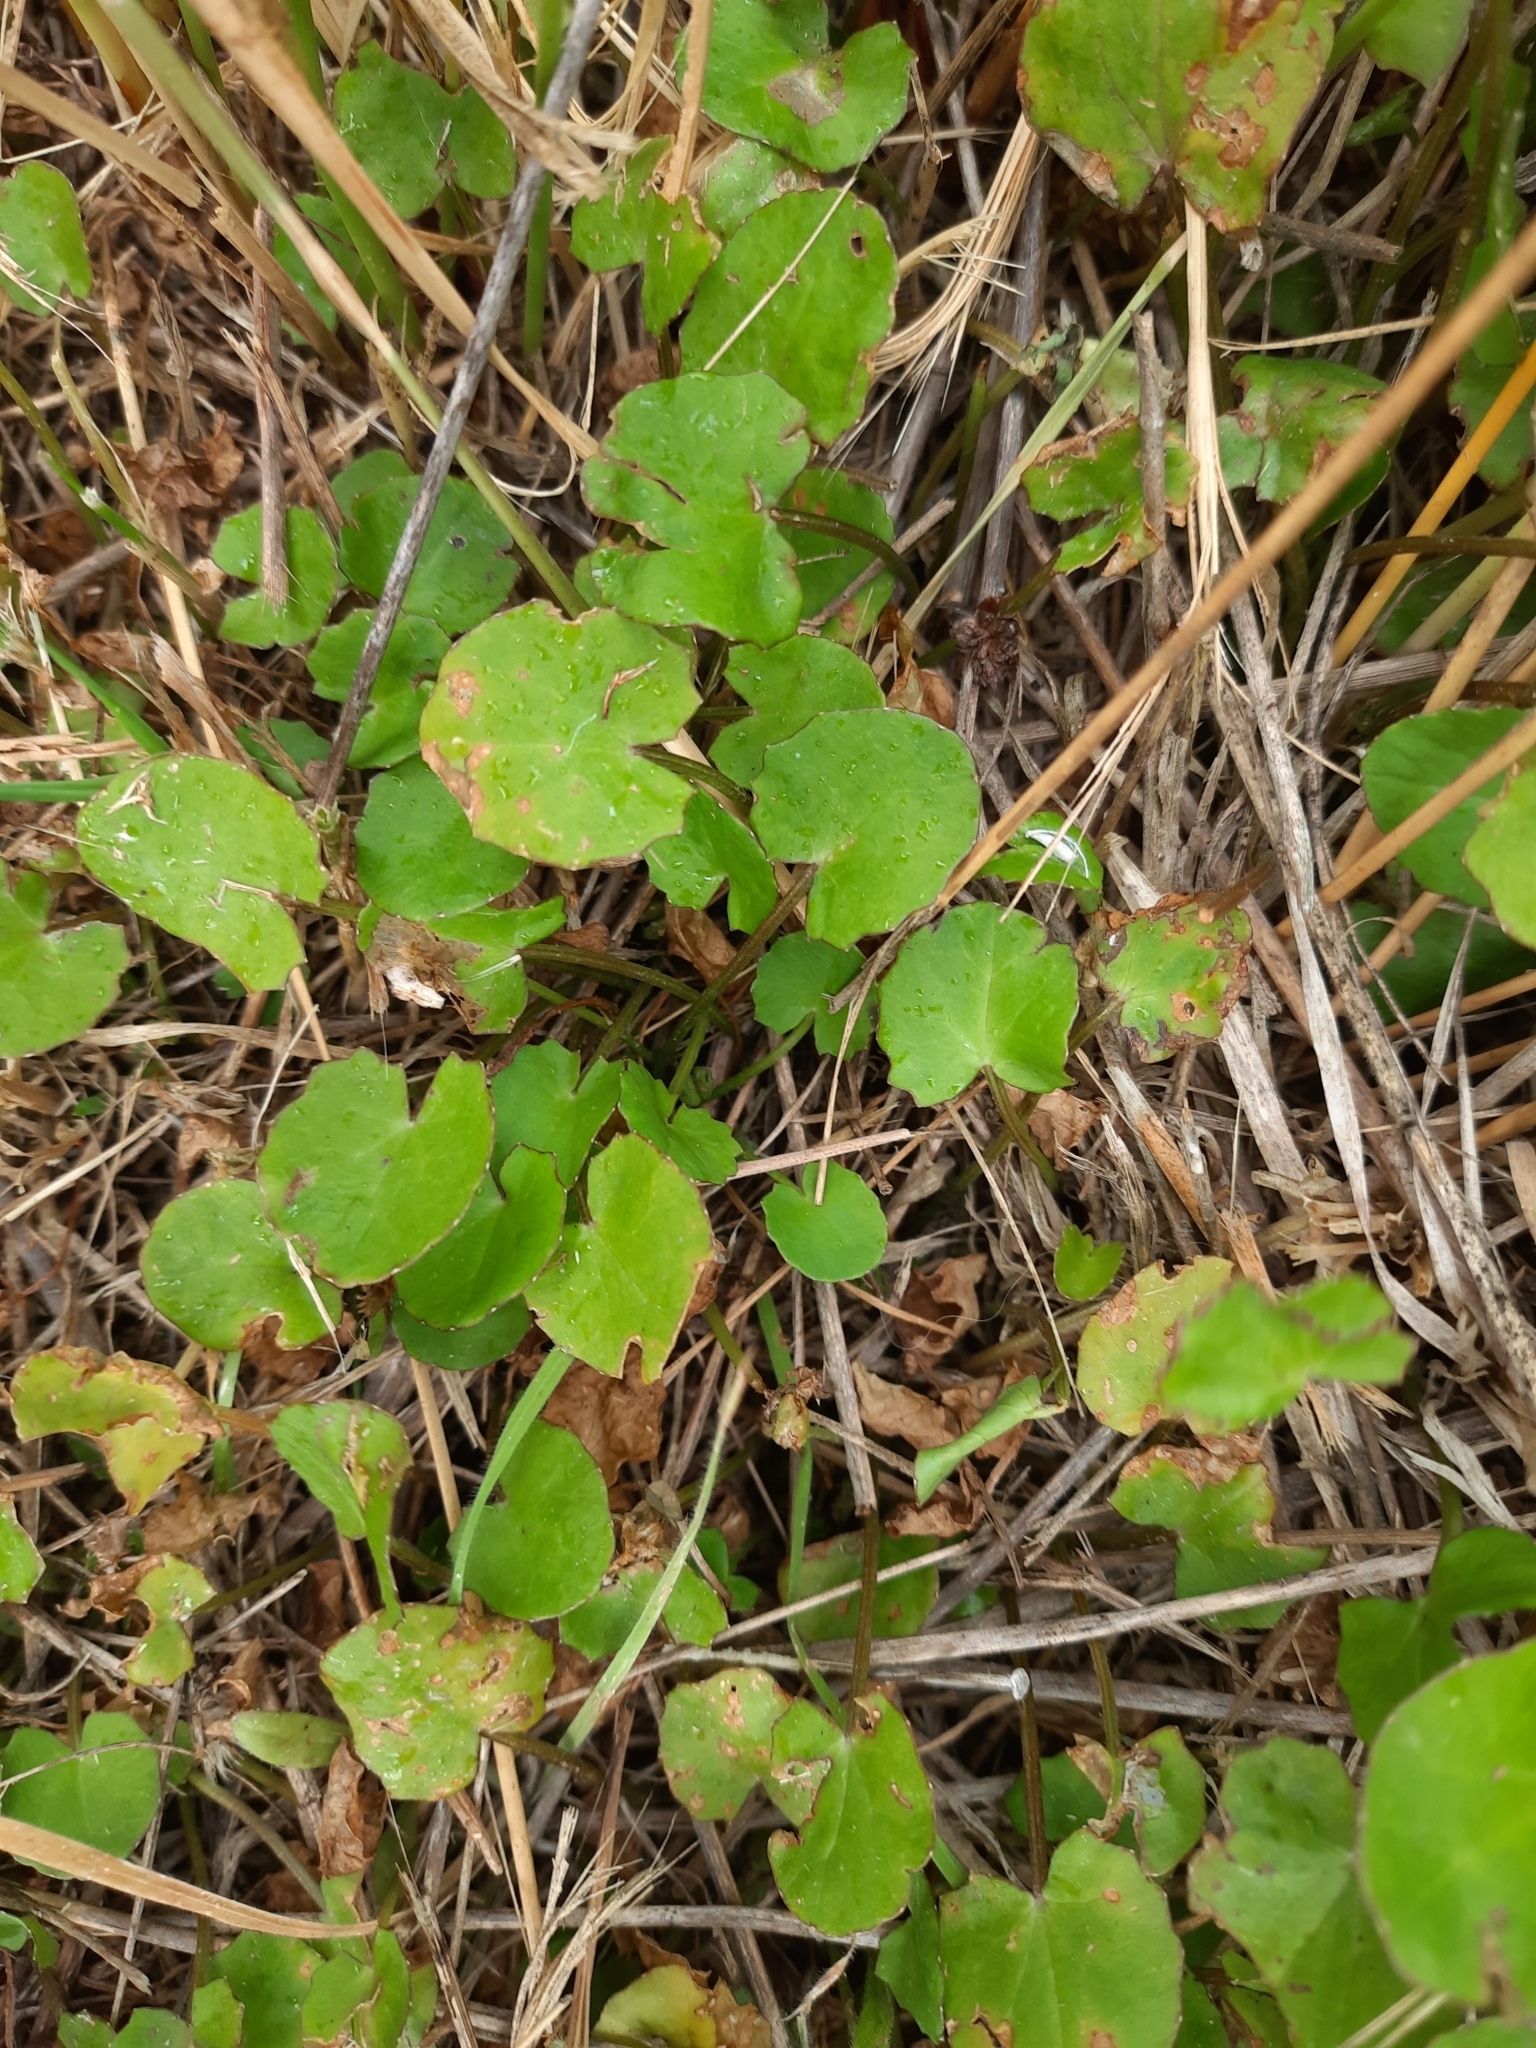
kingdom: Plantae
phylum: Tracheophyta
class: Magnoliopsida
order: Apiales
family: Apiaceae
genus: Centella
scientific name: Centella uniflora
